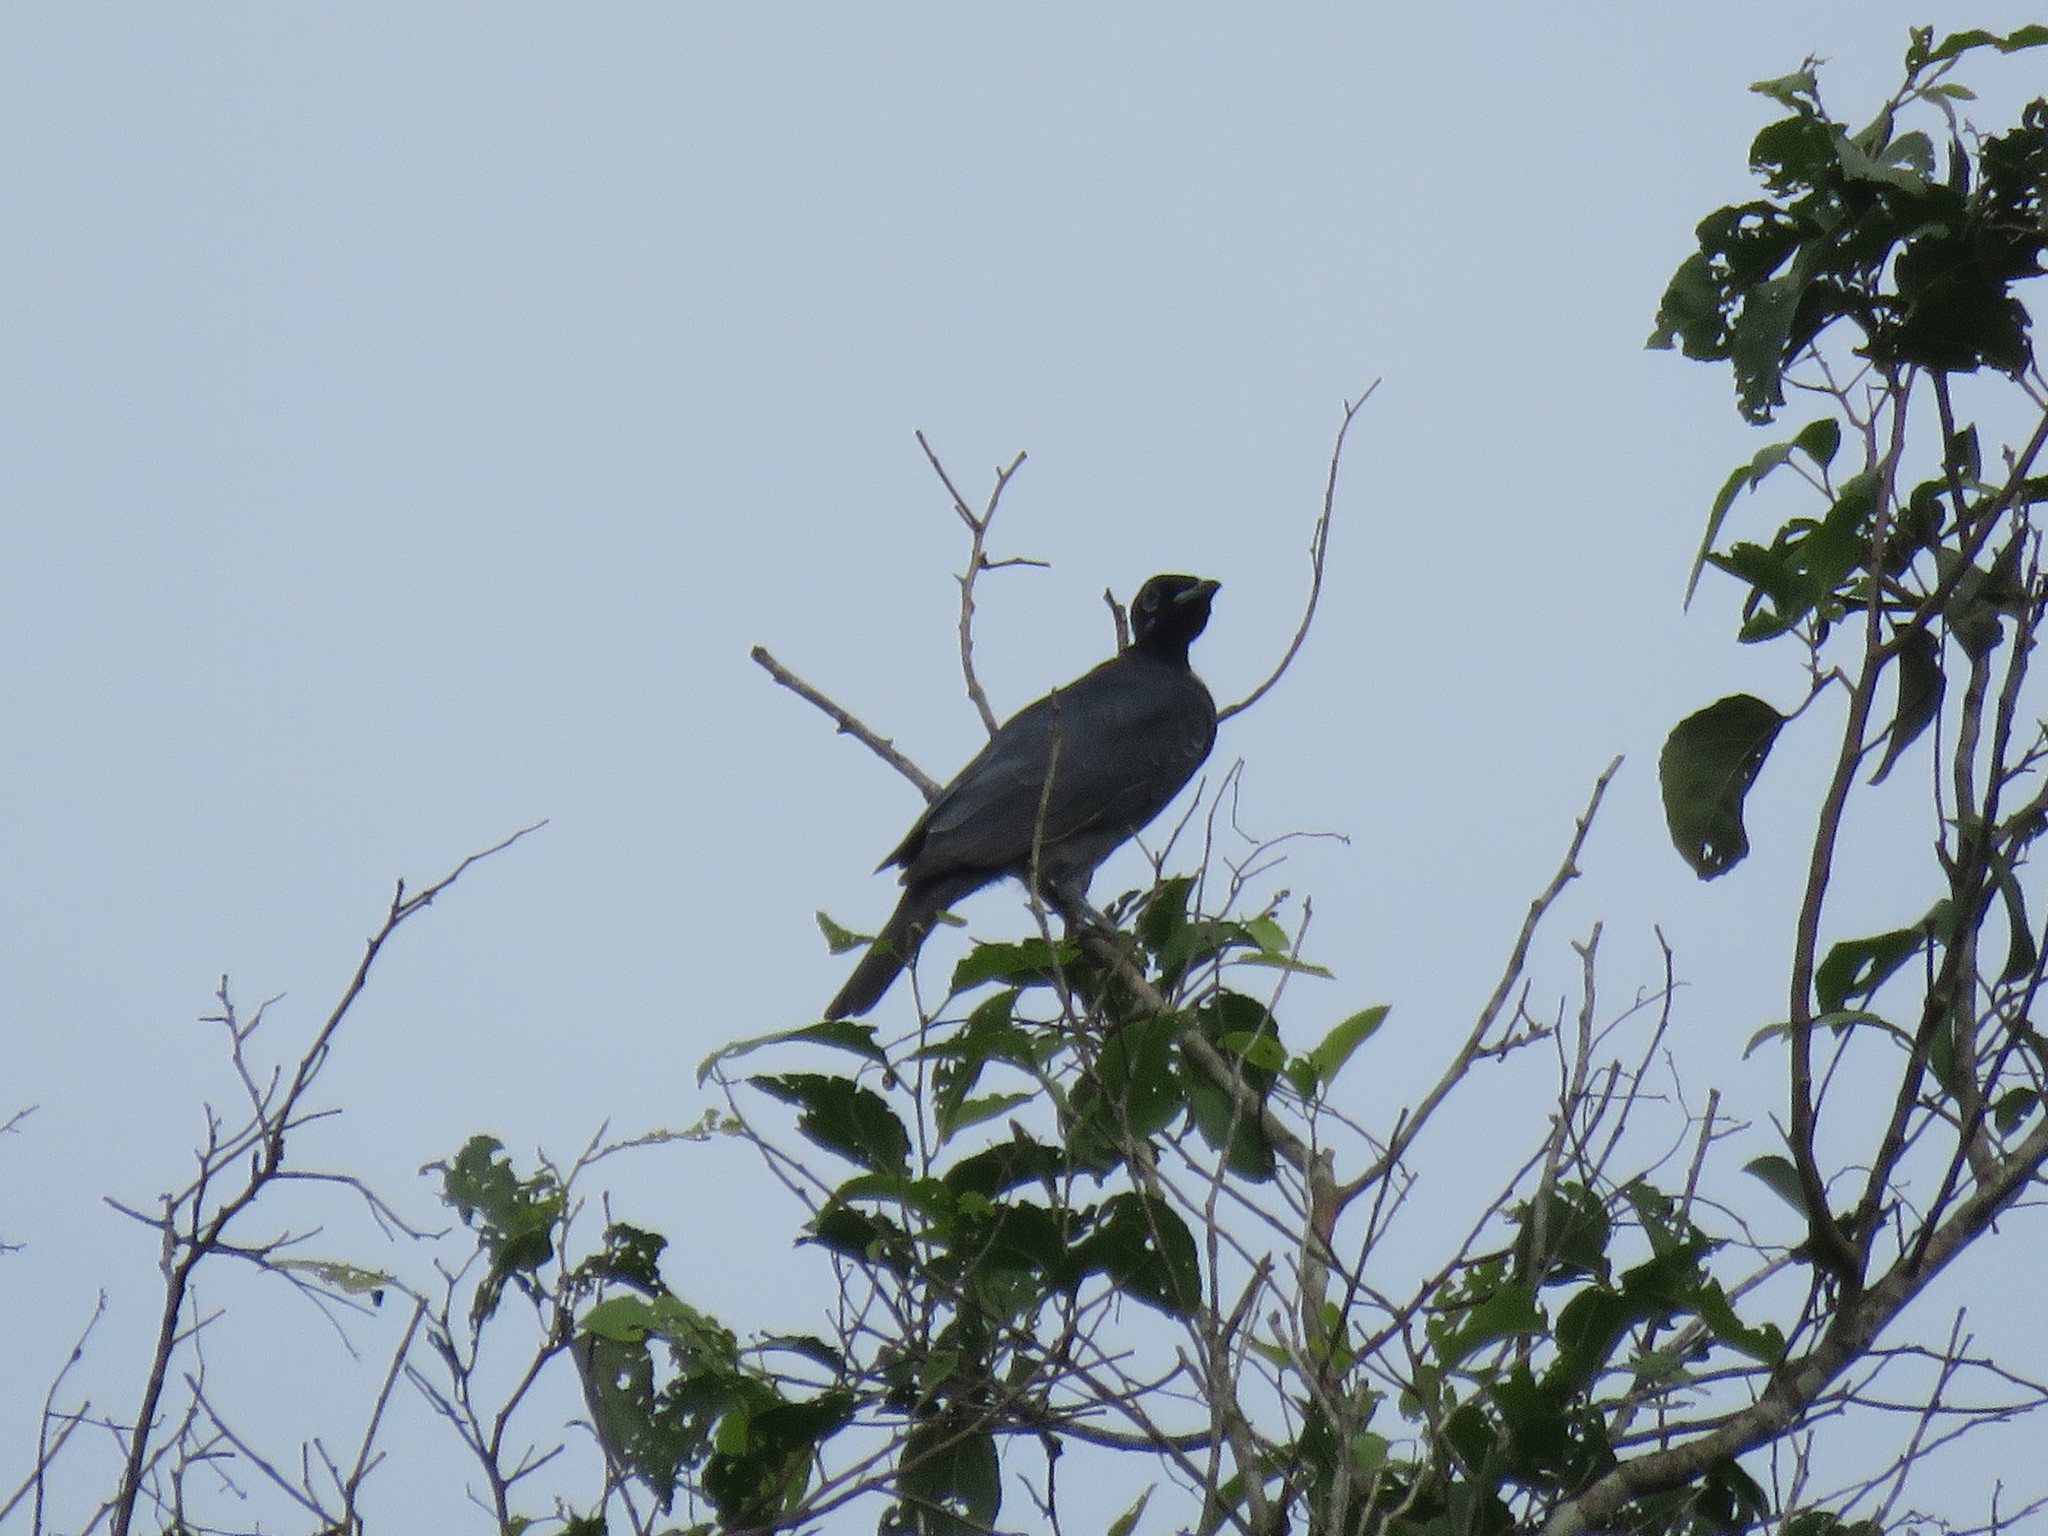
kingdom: Animalia
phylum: Chordata
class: Aves
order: Passeriformes
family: Cotingidae
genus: Gymnoderus
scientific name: Gymnoderus foetidus
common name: Bare-necked fruitcrow
